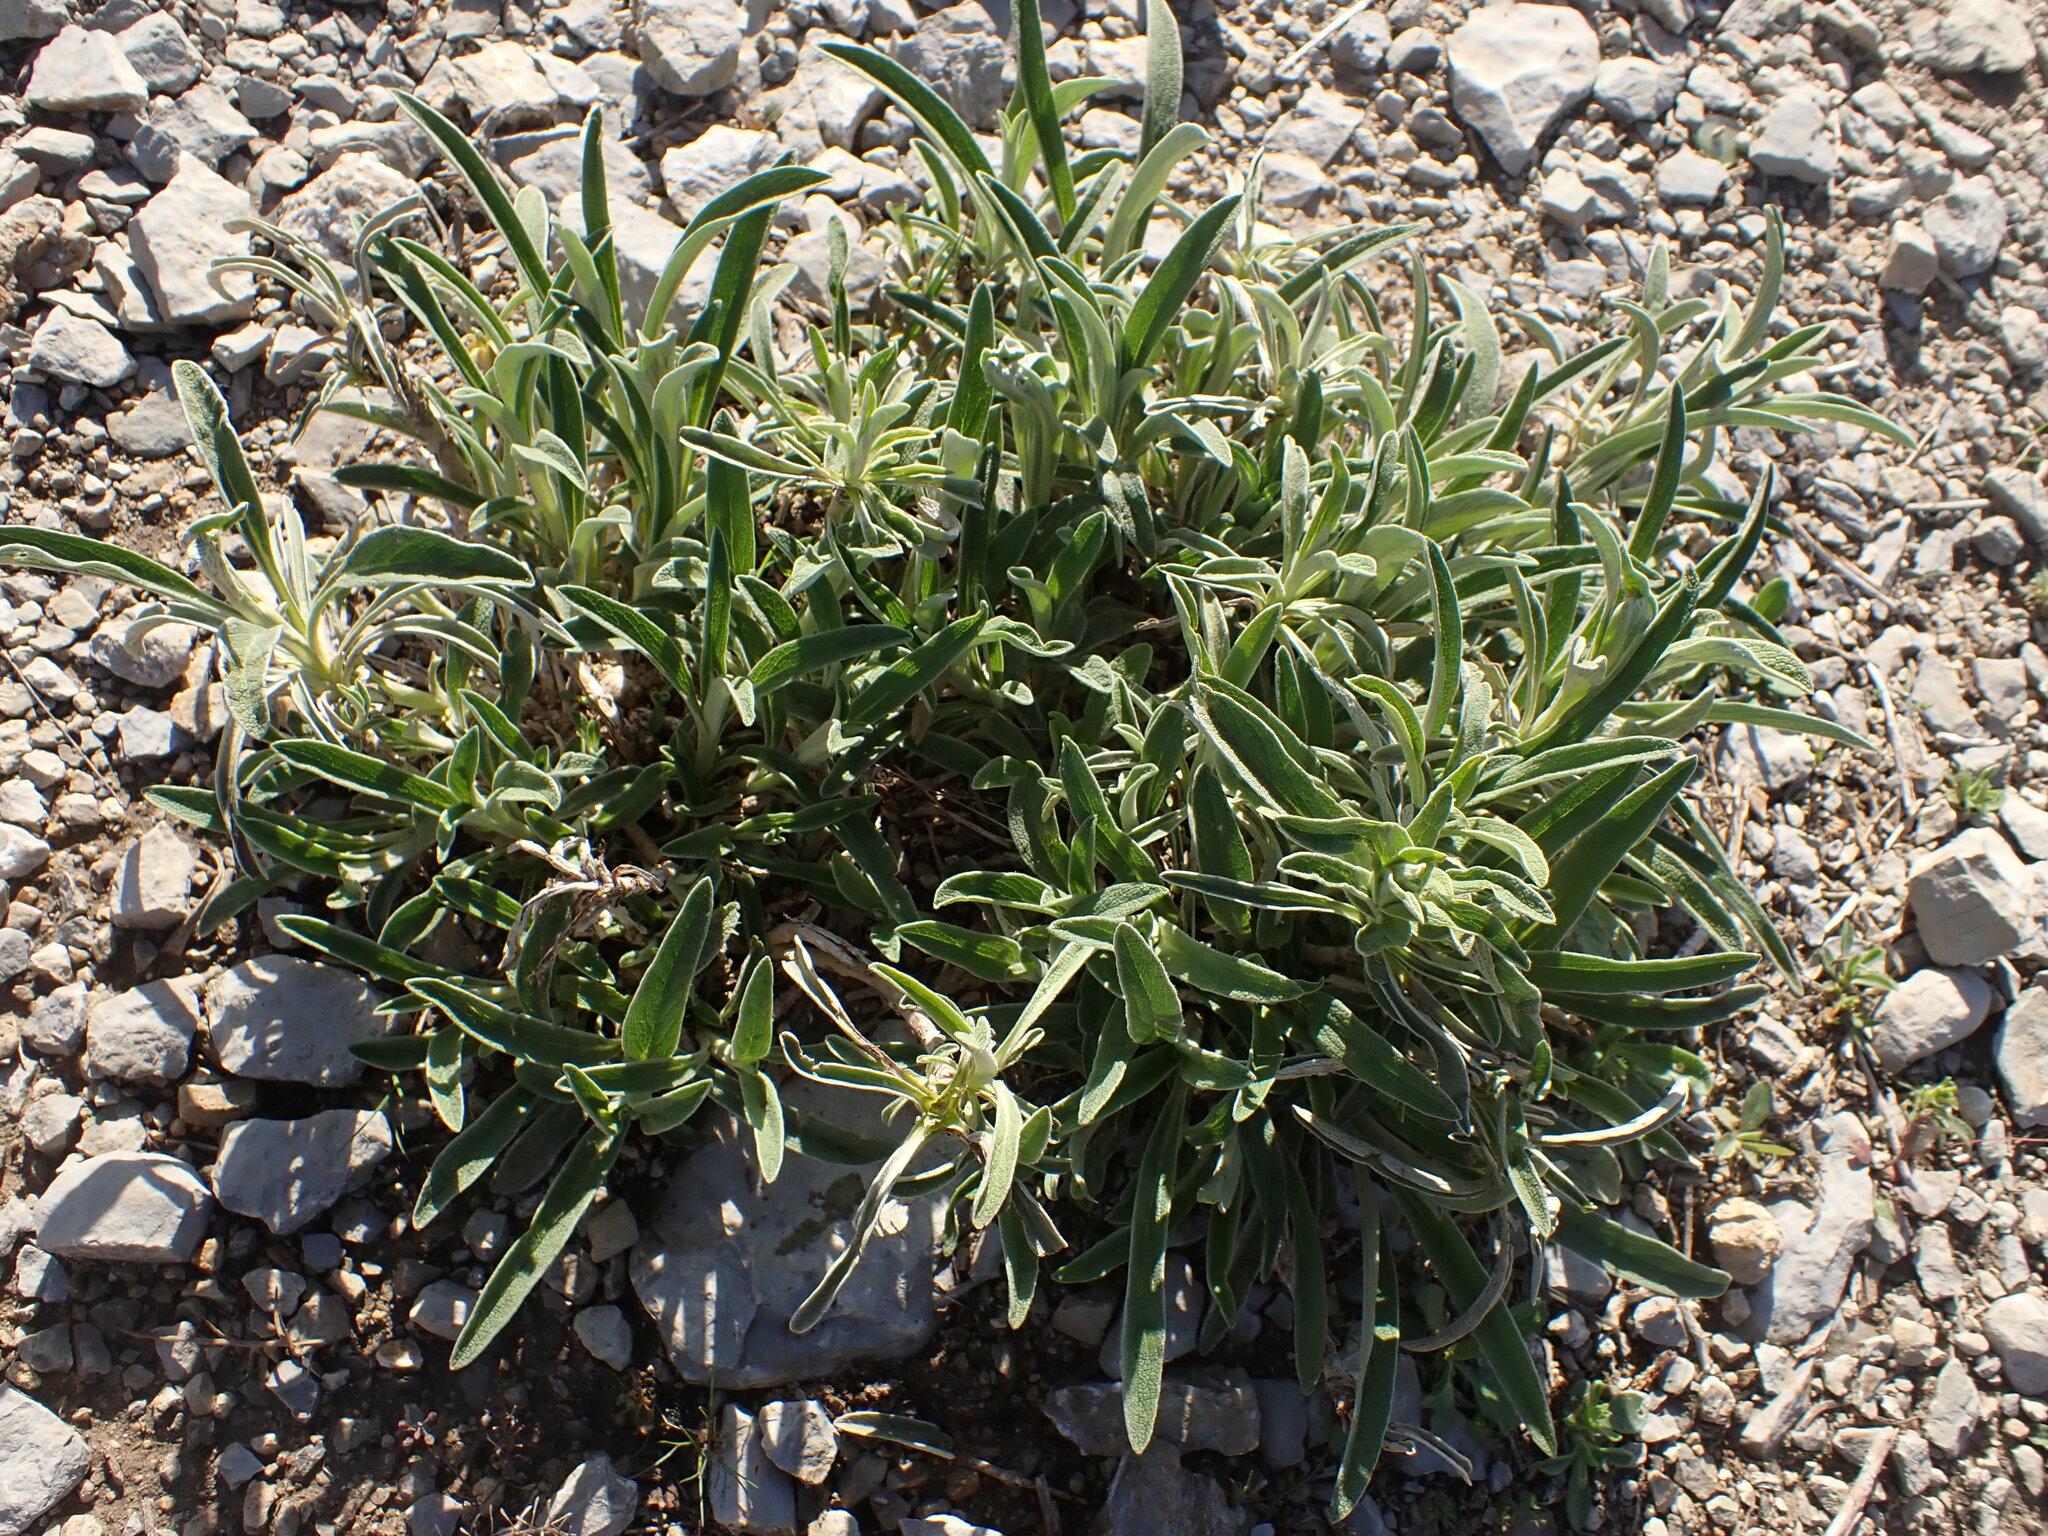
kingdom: Plantae
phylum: Tracheophyta
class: Magnoliopsida
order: Lamiales
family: Lamiaceae
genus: Phlomis
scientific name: Phlomis lychnitis
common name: Lampwickplant
